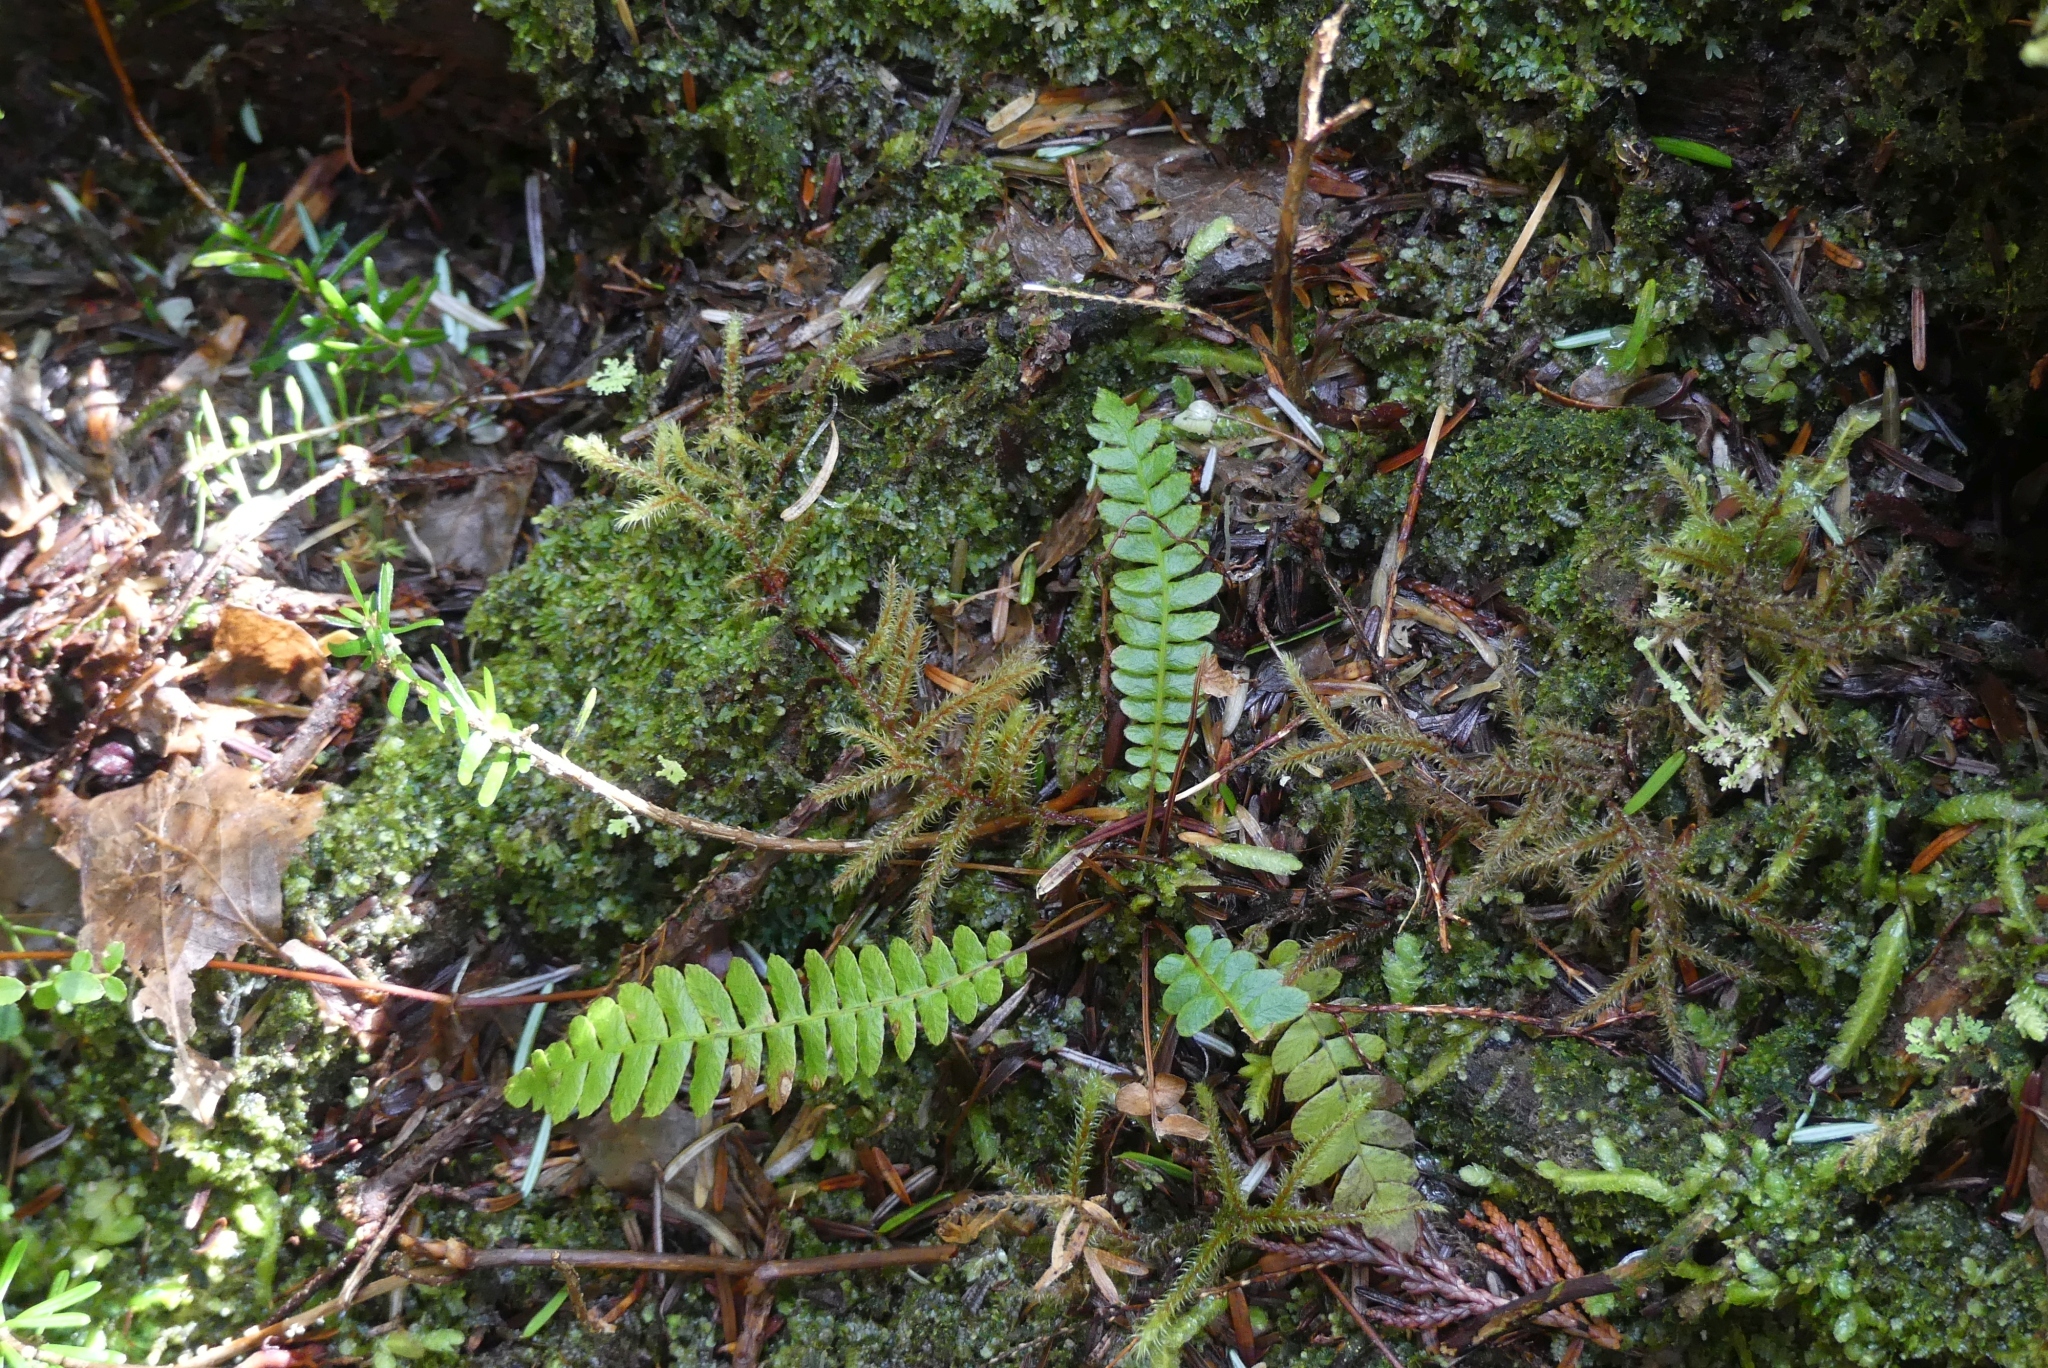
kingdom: Plantae
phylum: Tracheophyta
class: Polypodiopsida
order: Polypodiales
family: Blechnaceae
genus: Struthiopteris
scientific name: Struthiopteris spicant
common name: Deer fern
